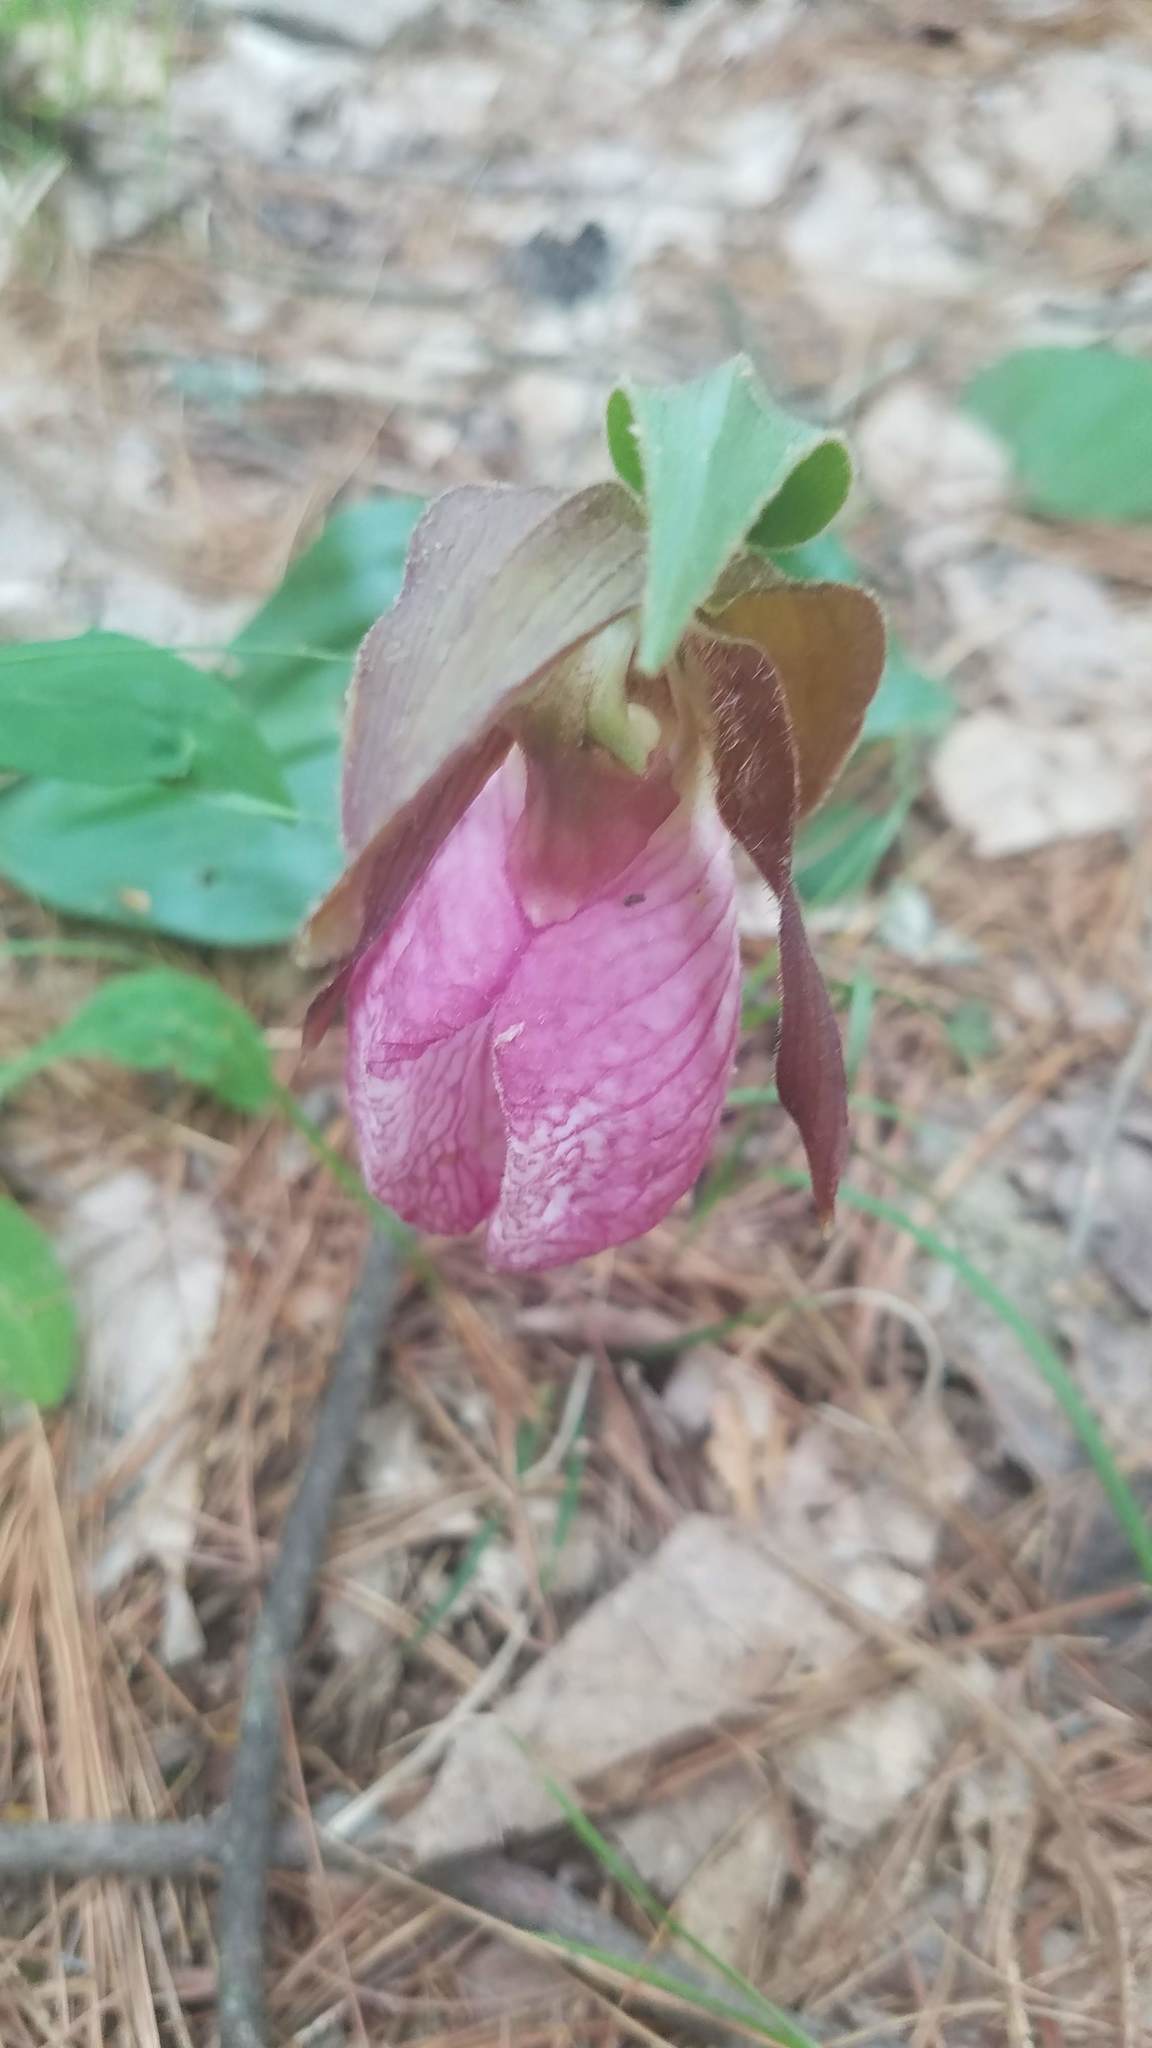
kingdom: Plantae
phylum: Tracheophyta
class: Liliopsida
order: Asparagales
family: Orchidaceae
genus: Cypripedium
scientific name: Cypripedium acaule
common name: Pink lady's-slipper
